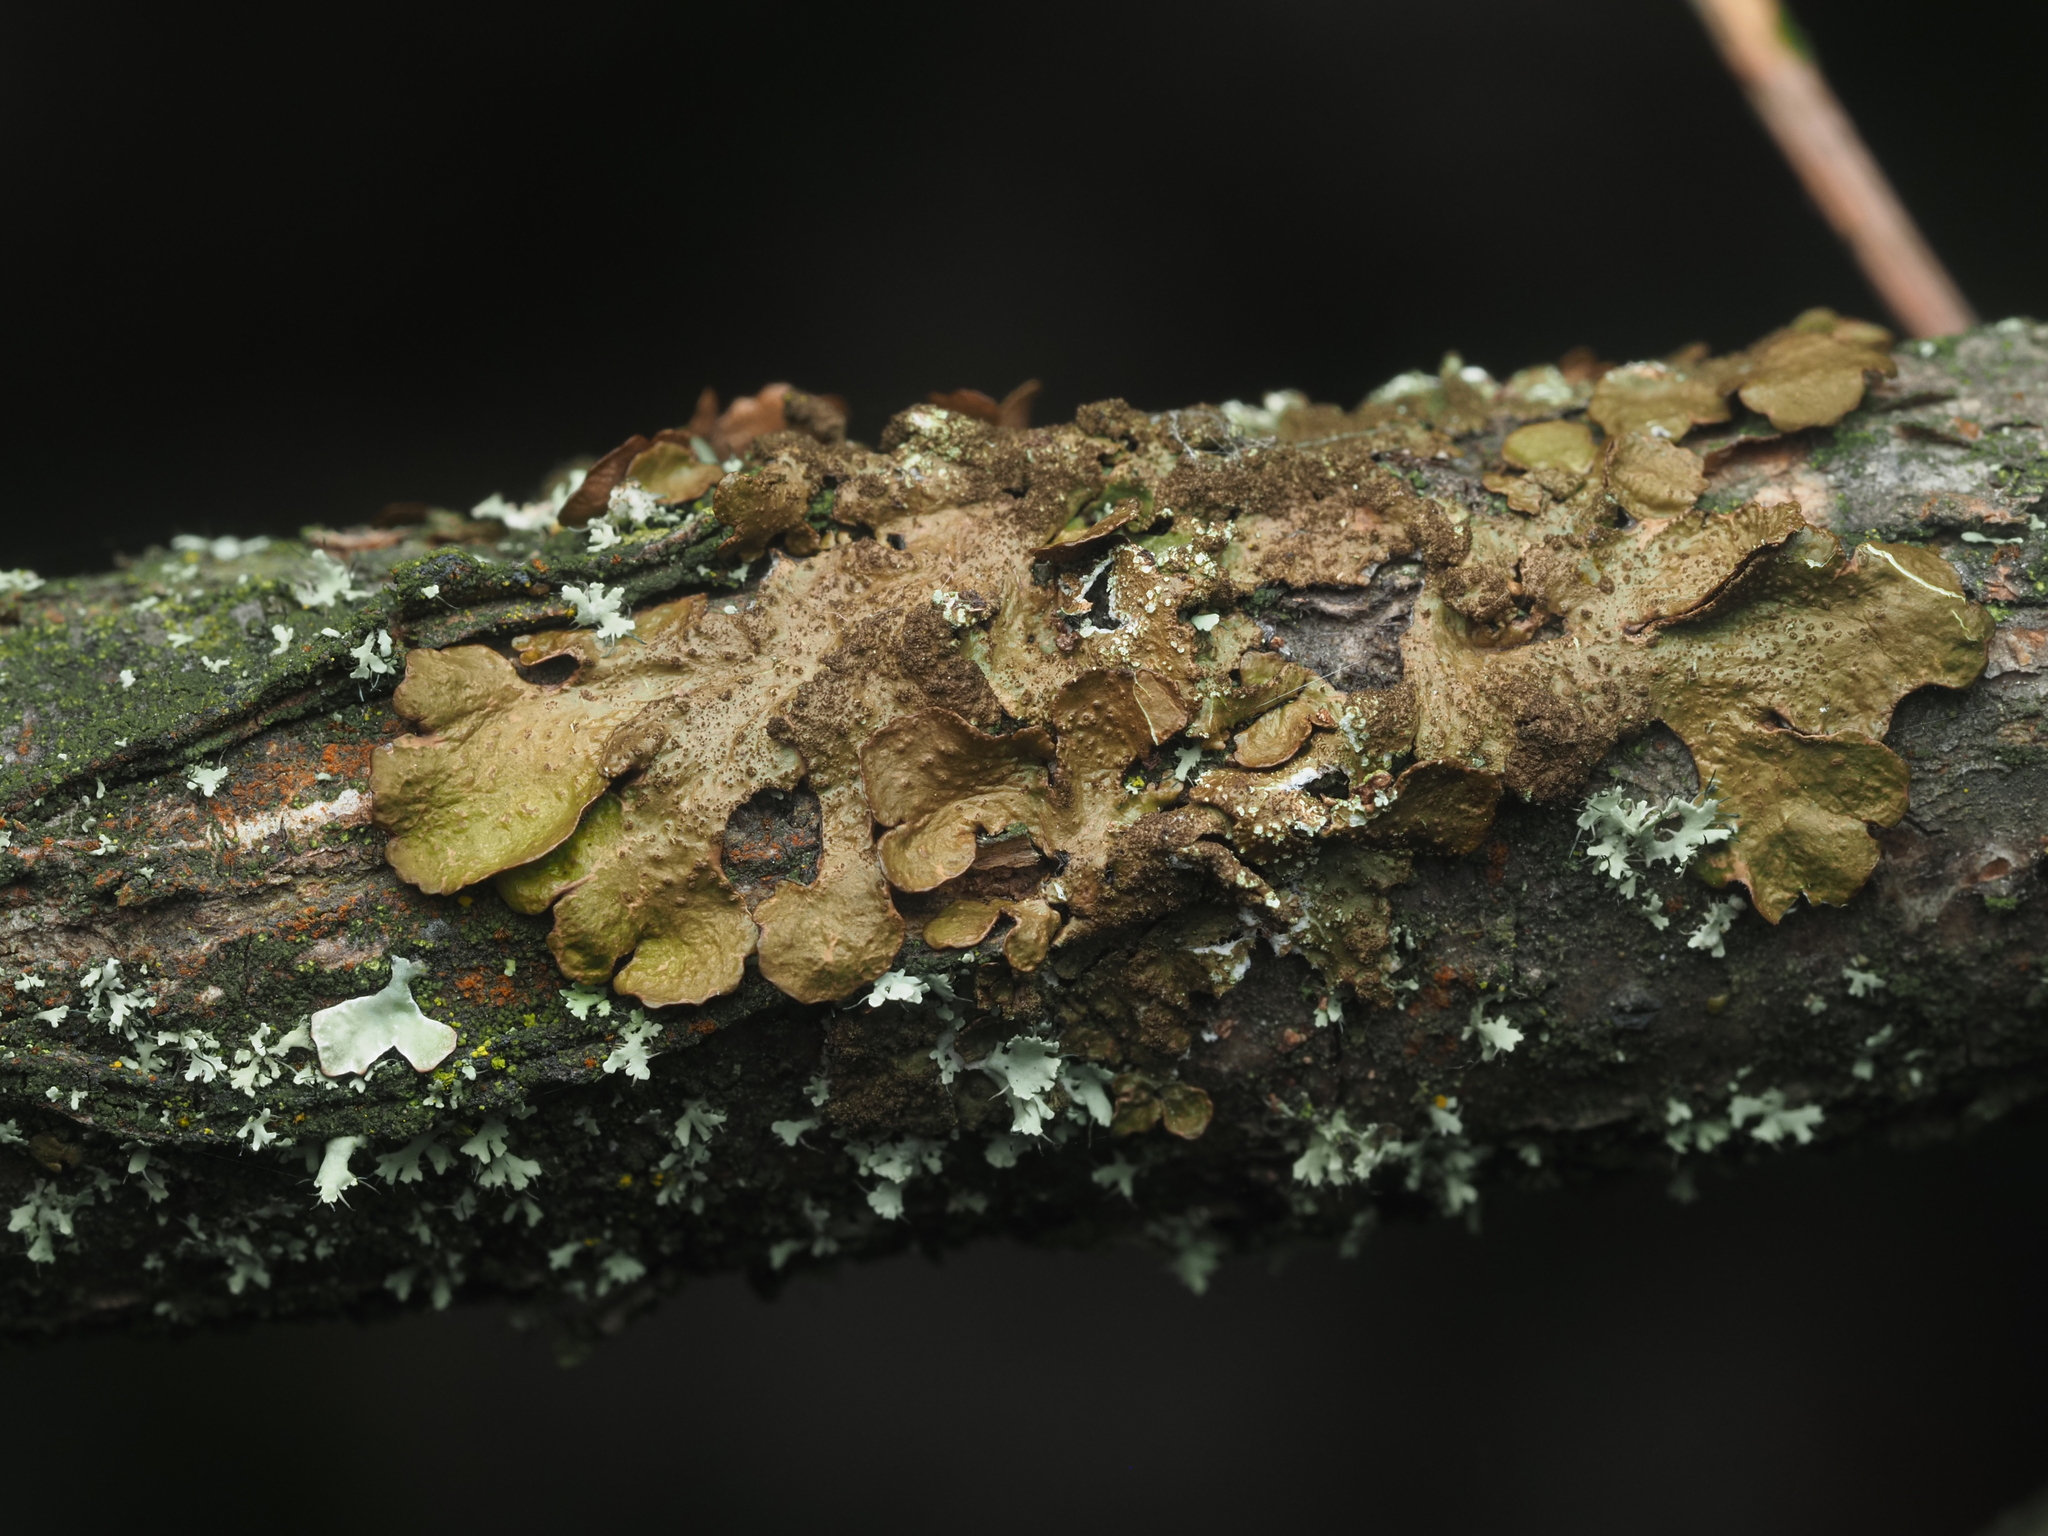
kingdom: Fungi
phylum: Ascomycota
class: Lecanoromycetes
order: Lecanorales
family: Parmeliaceae
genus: Melanelixia
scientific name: Melanelixia subaurifera
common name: Abraded camouflage lichen
